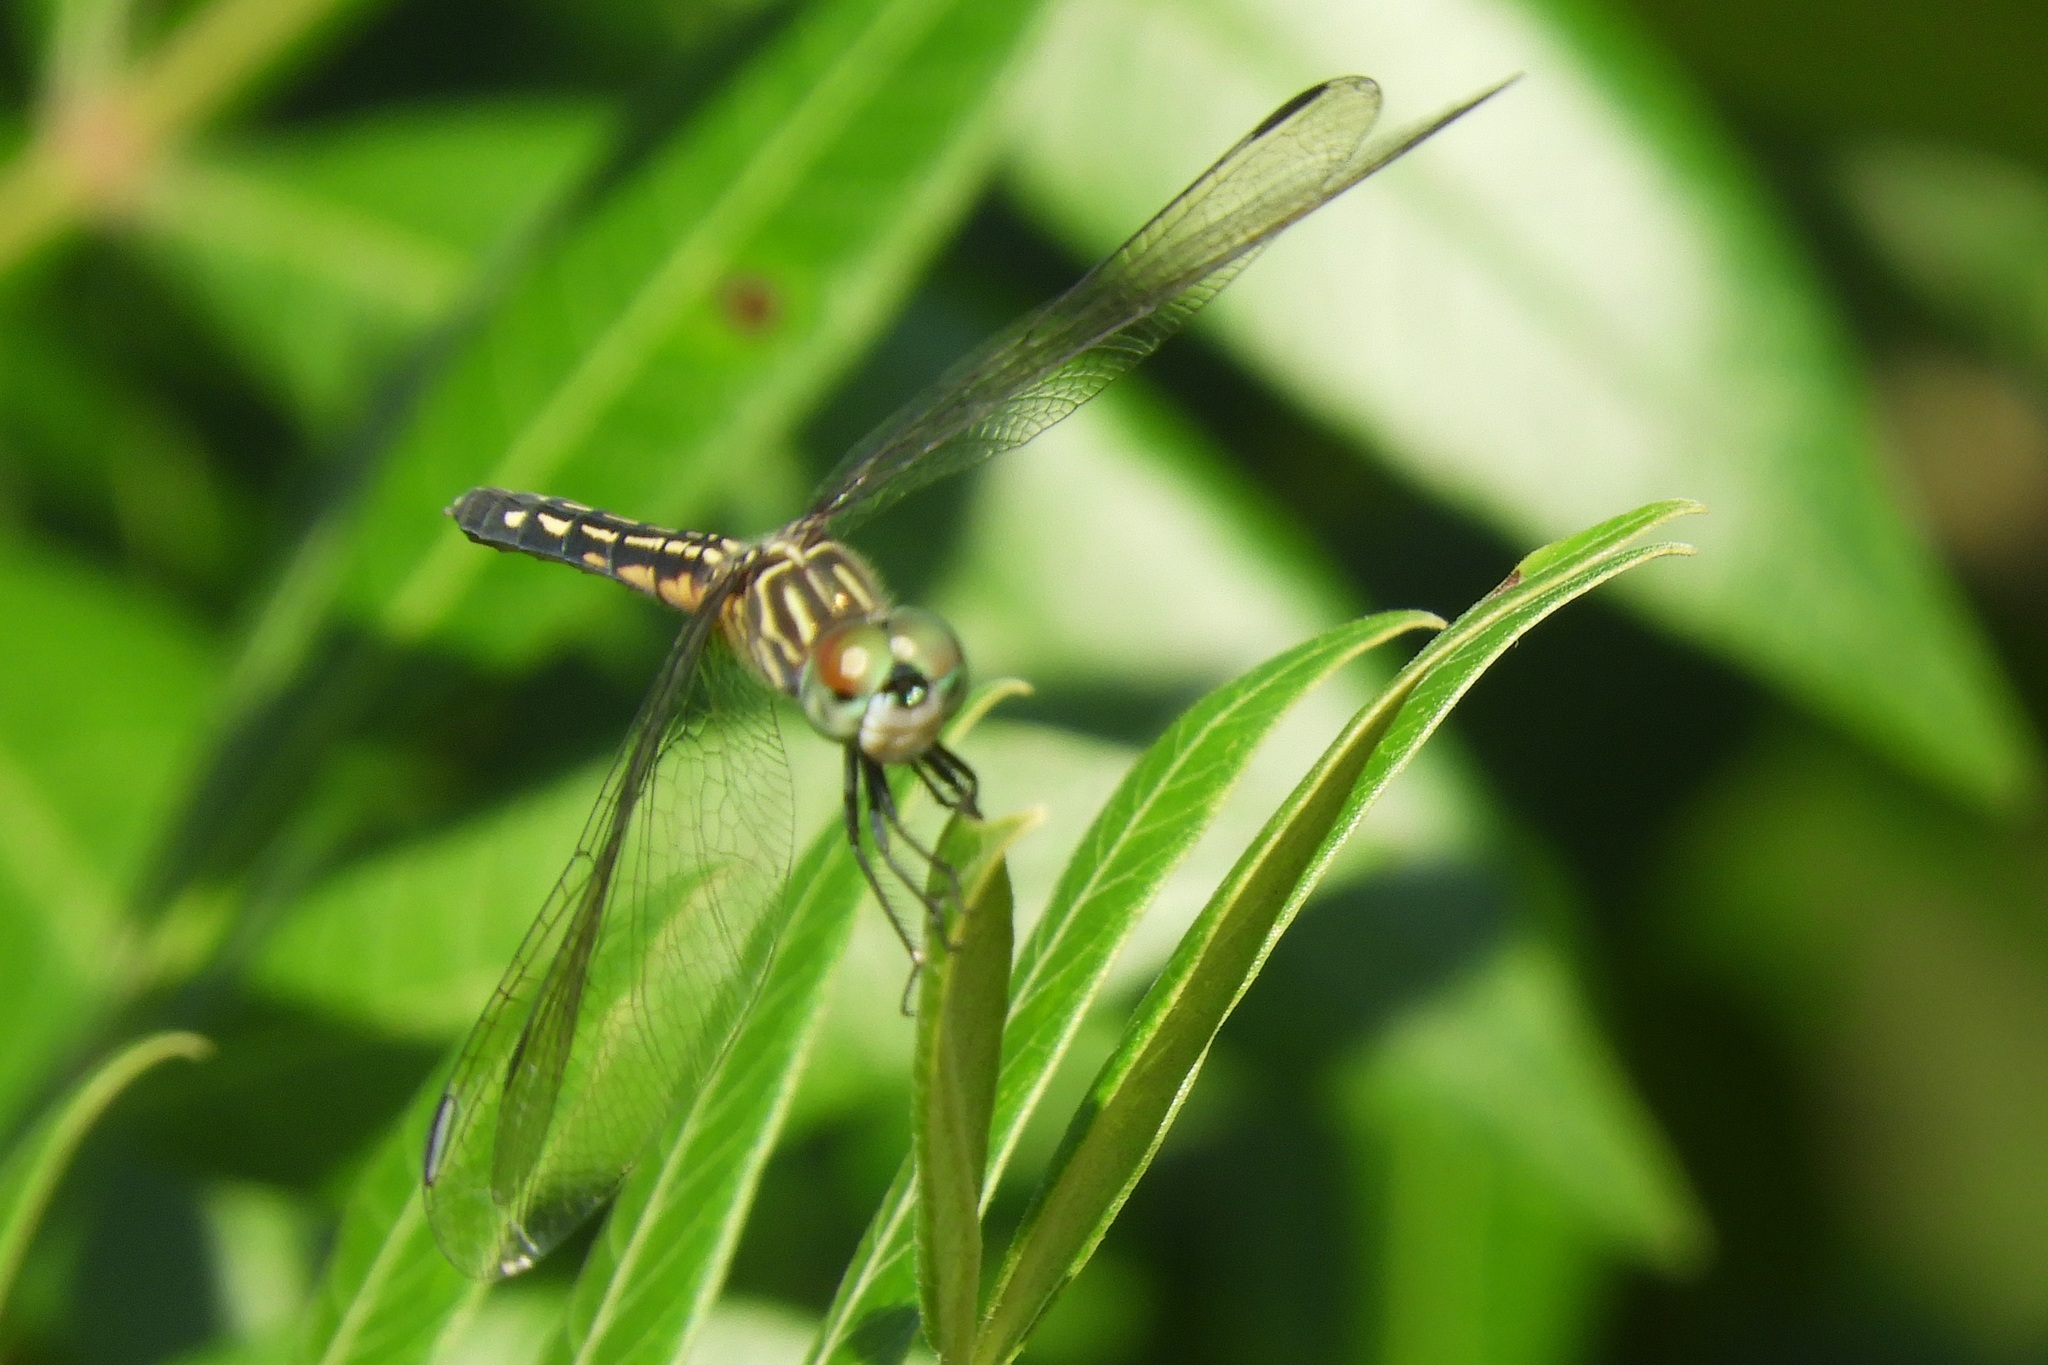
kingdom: Animalia
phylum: Arthropoda
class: Insecta
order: Odonata
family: Libellulidae
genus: Pachydiplax
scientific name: Pachydiplax longipennis
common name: Blue dasher
